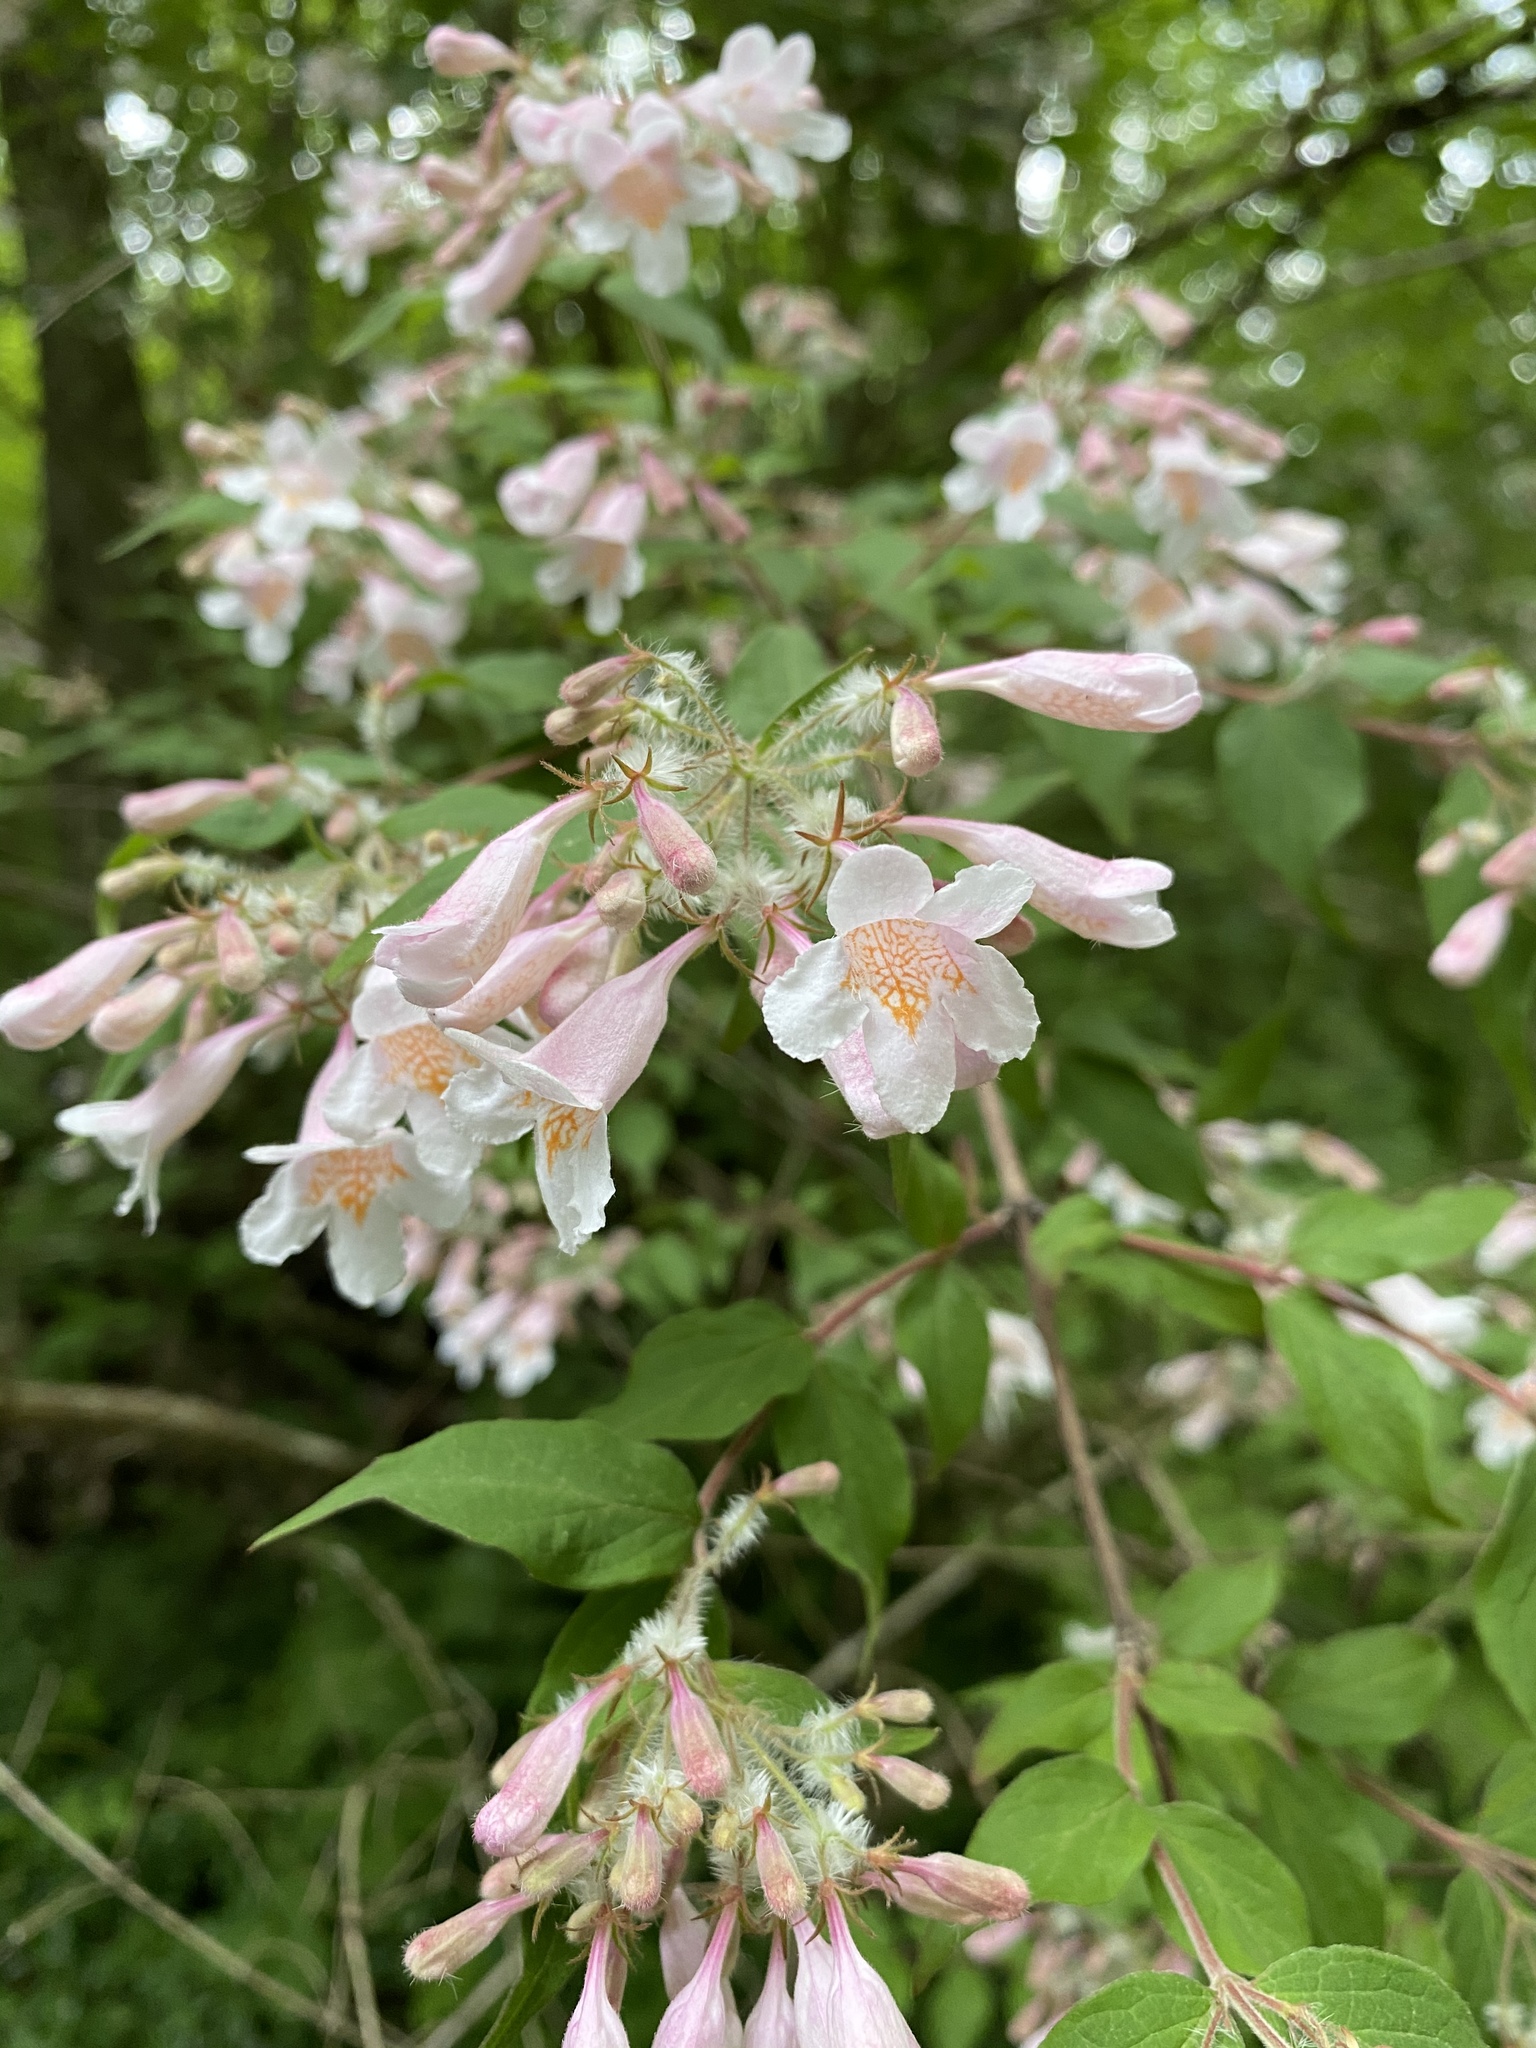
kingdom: Plantae
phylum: Tracheophyta
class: Magnoliopsida
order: Dipsacales
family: Caprifoliaceae
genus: Kolkwitzia
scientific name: Kolkwitzia amabilis
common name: Beautybush
